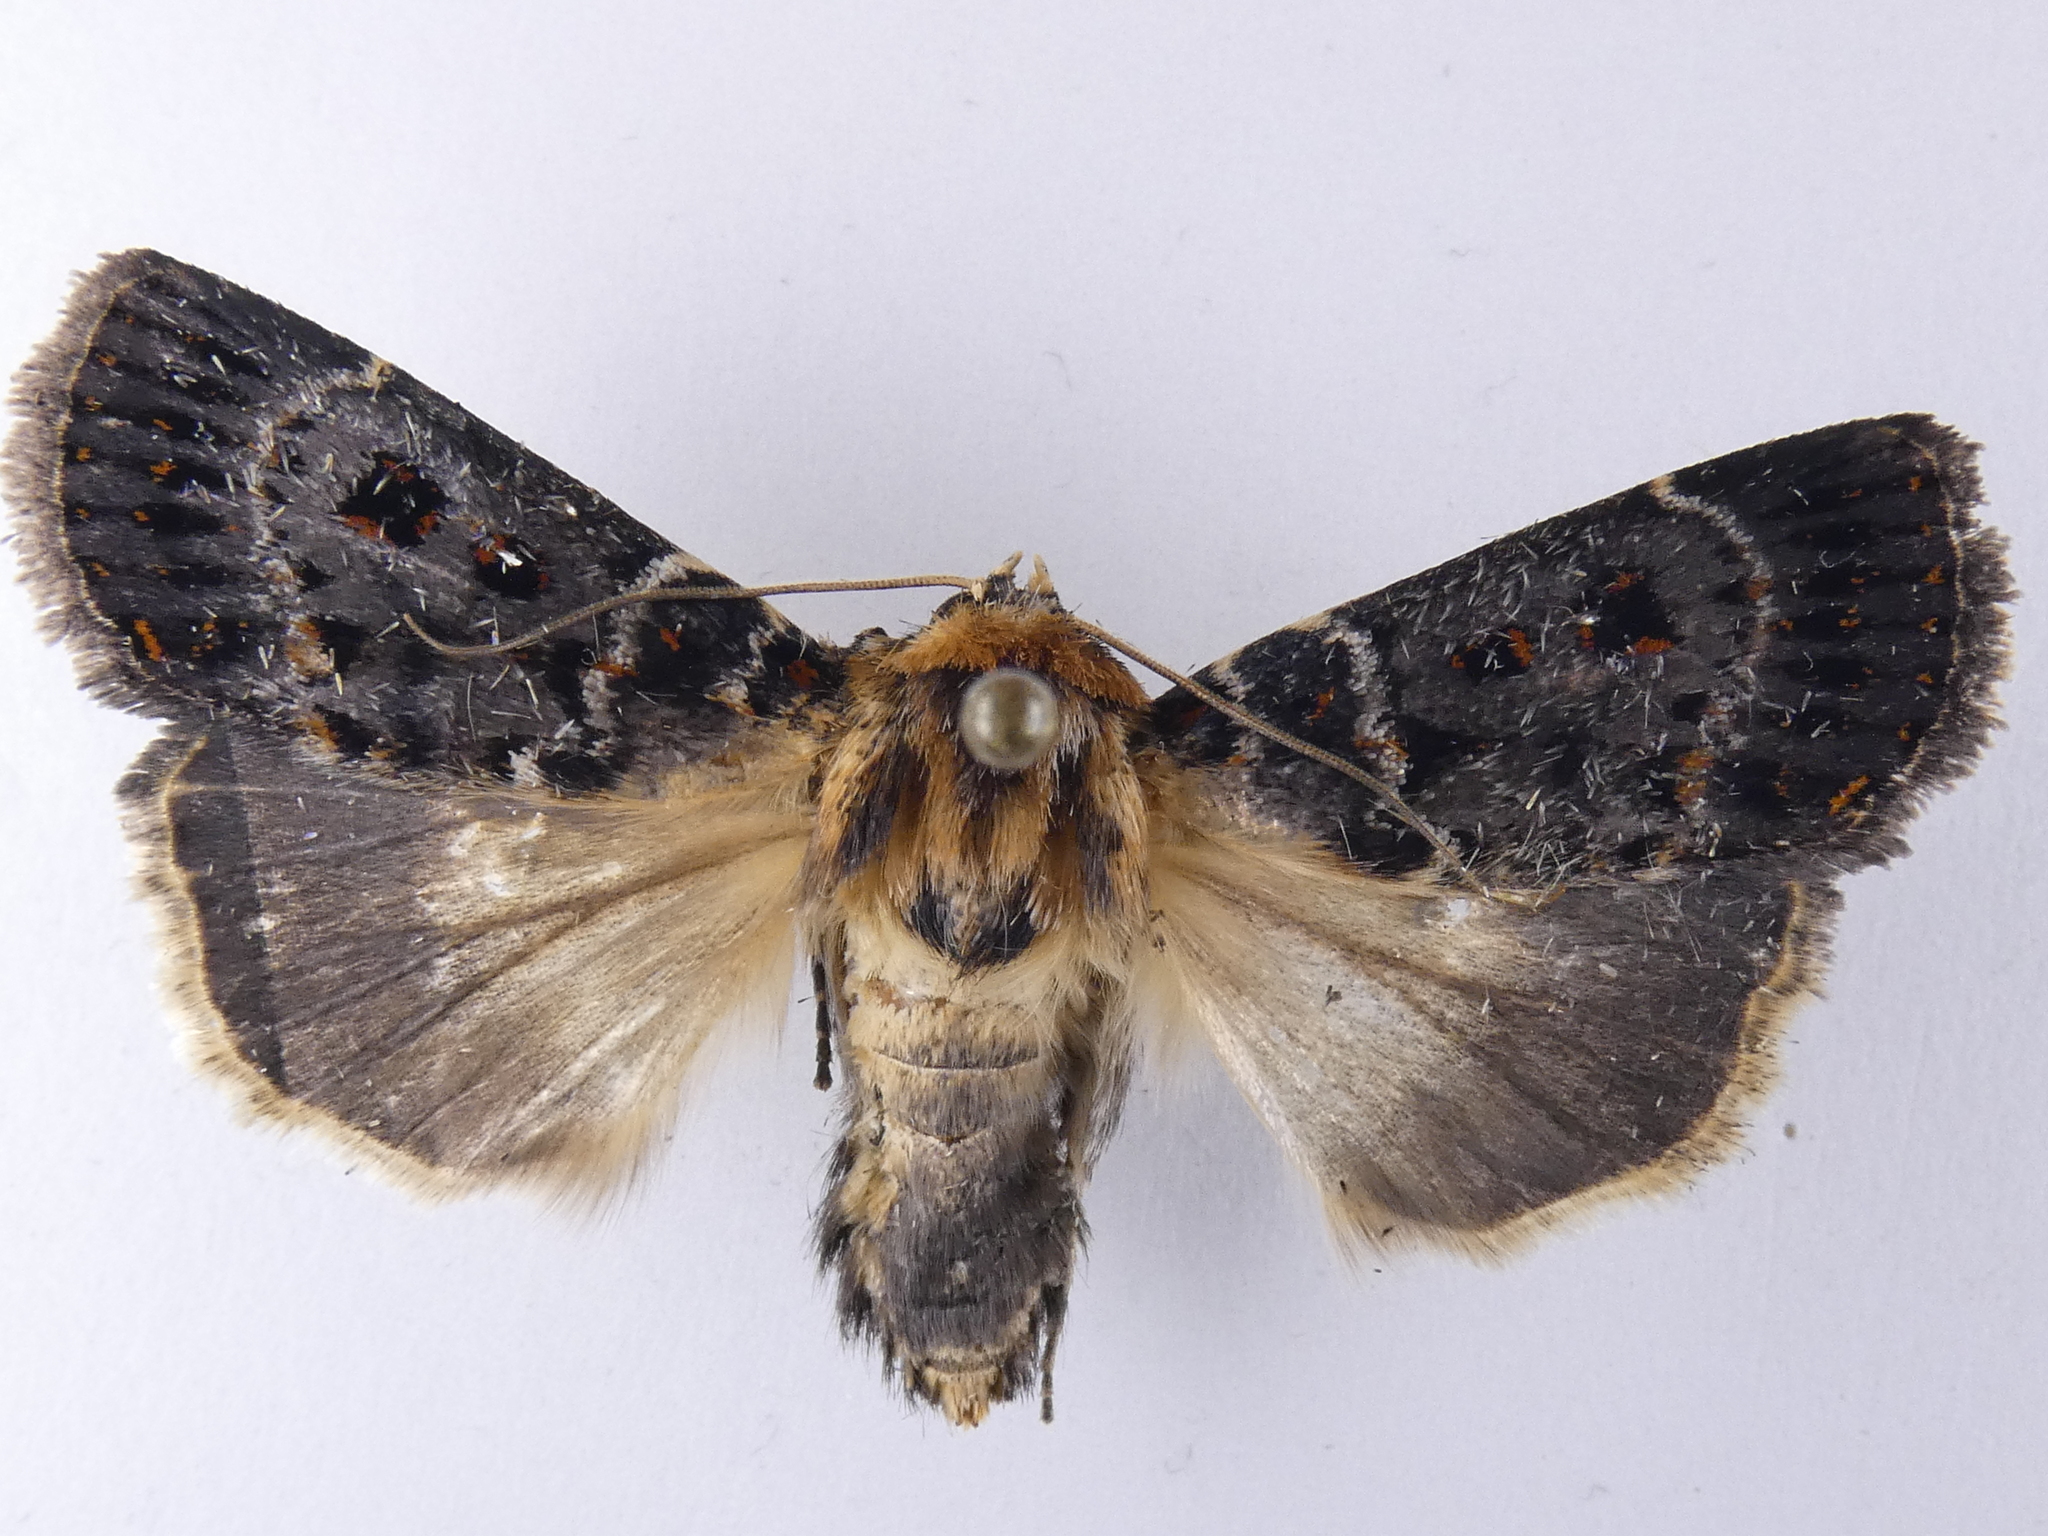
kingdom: Animalia
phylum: Arthropoda
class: Insecta
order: Lepidoptera
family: Noctuidae
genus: Proteuxoa
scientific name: Proteuxoa sanguinipuncta
